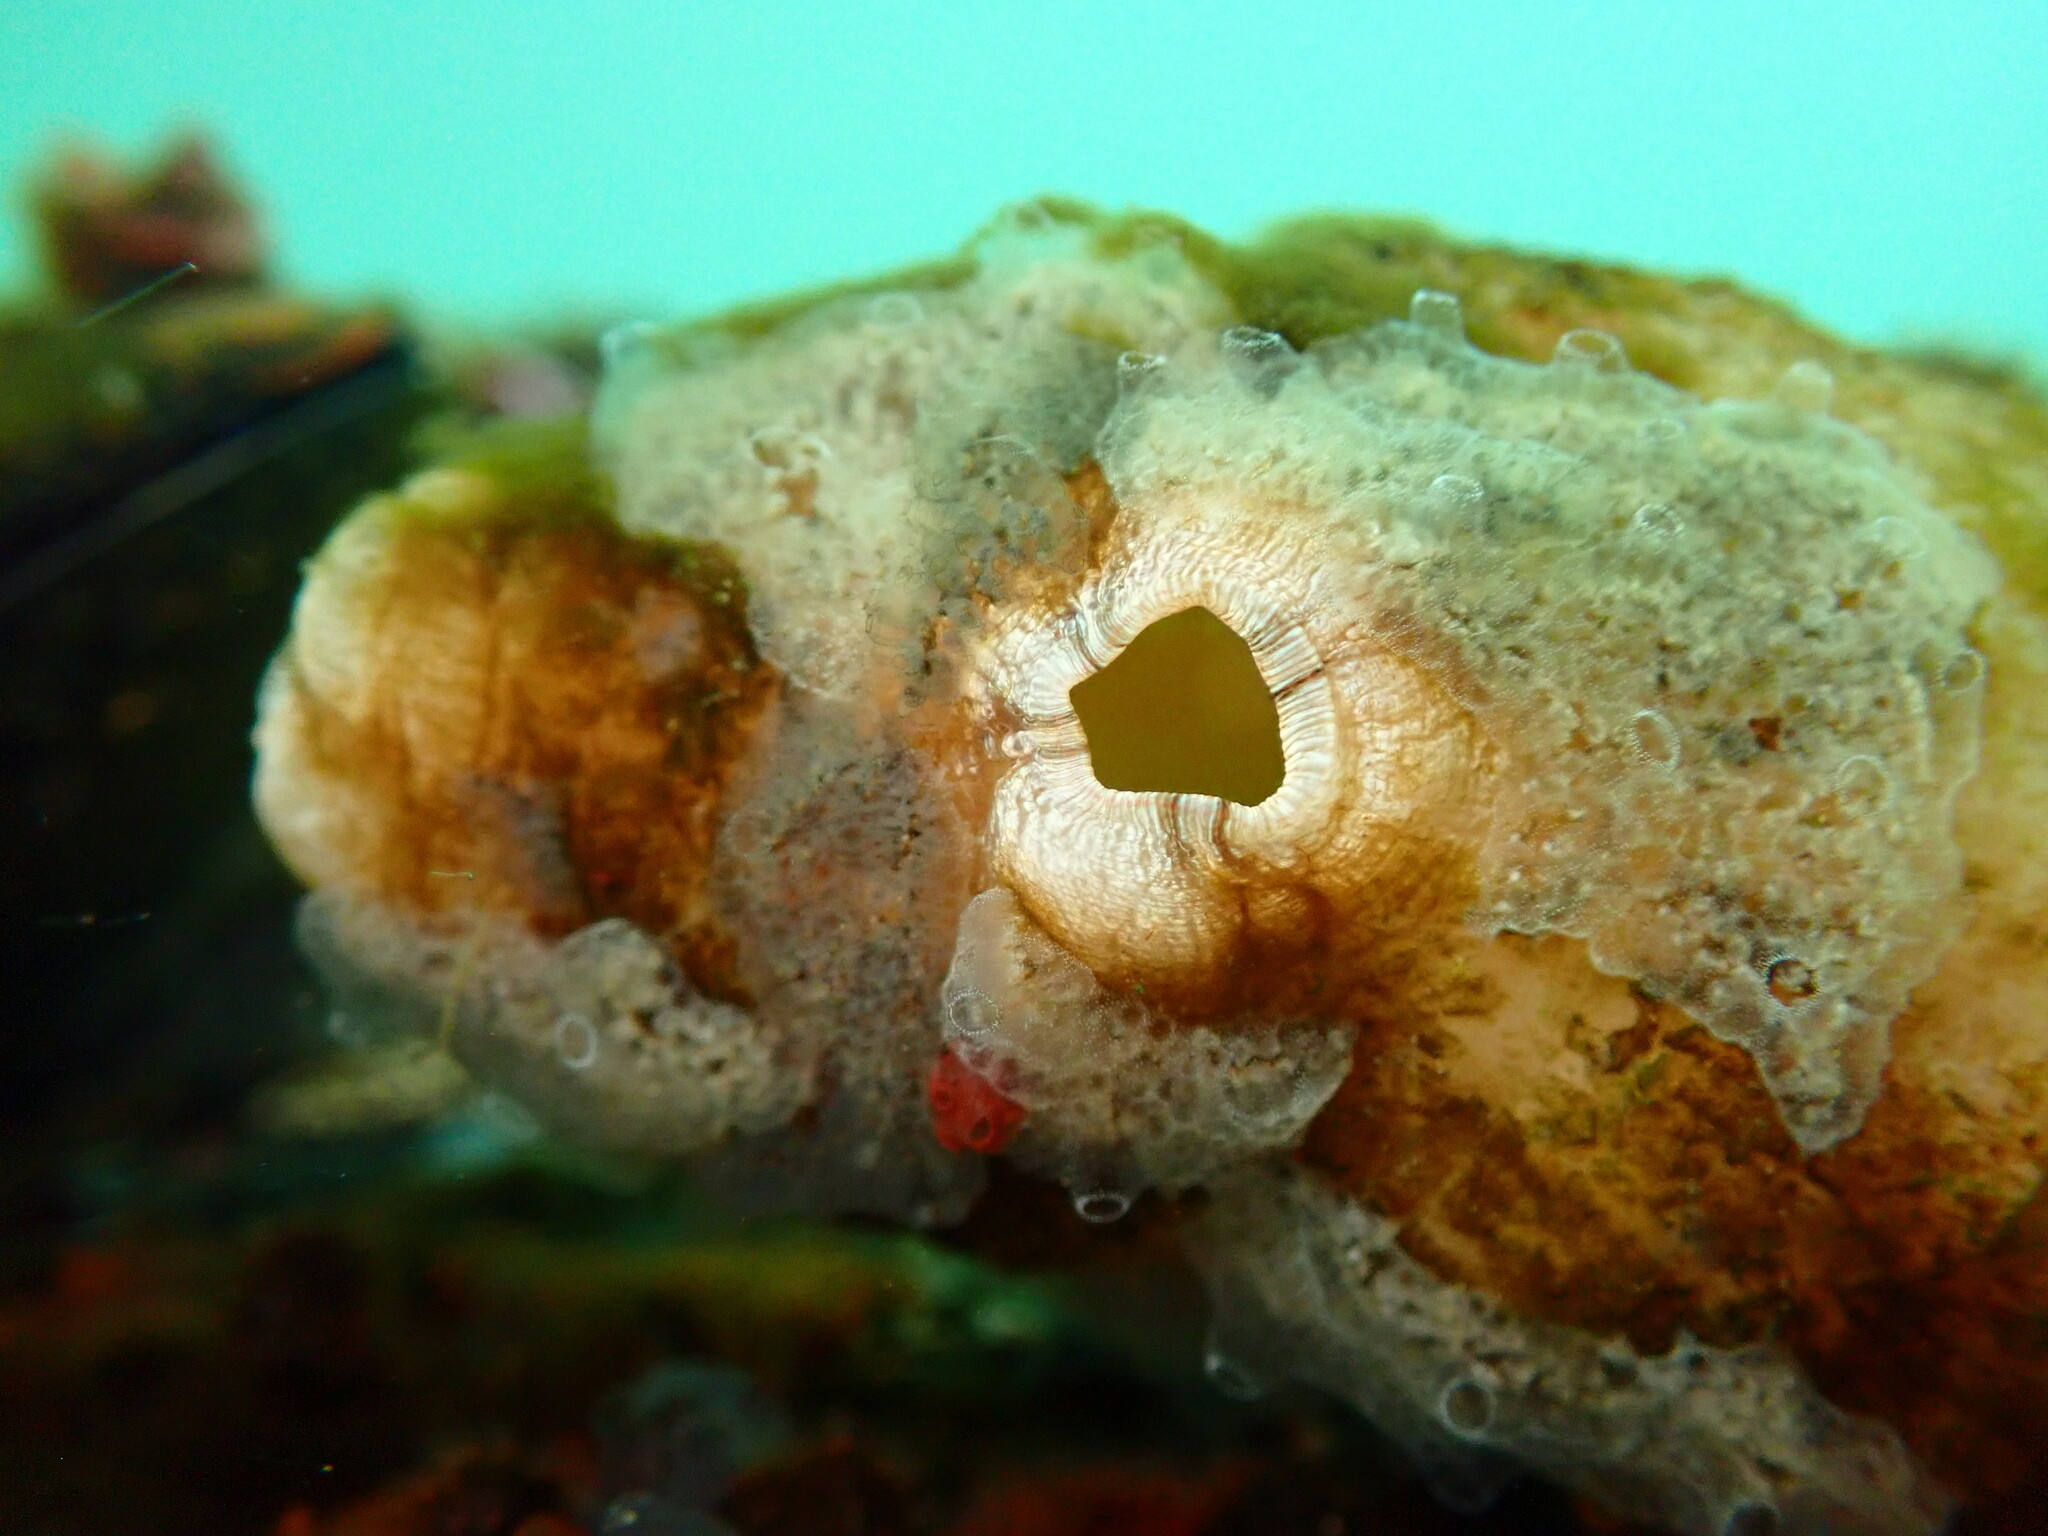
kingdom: Animalia
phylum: Chordata
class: Ascidiacea
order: Stolidobranchia
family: Styelidae
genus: Styela
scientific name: Styela plicata
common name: Pleated tunicate
